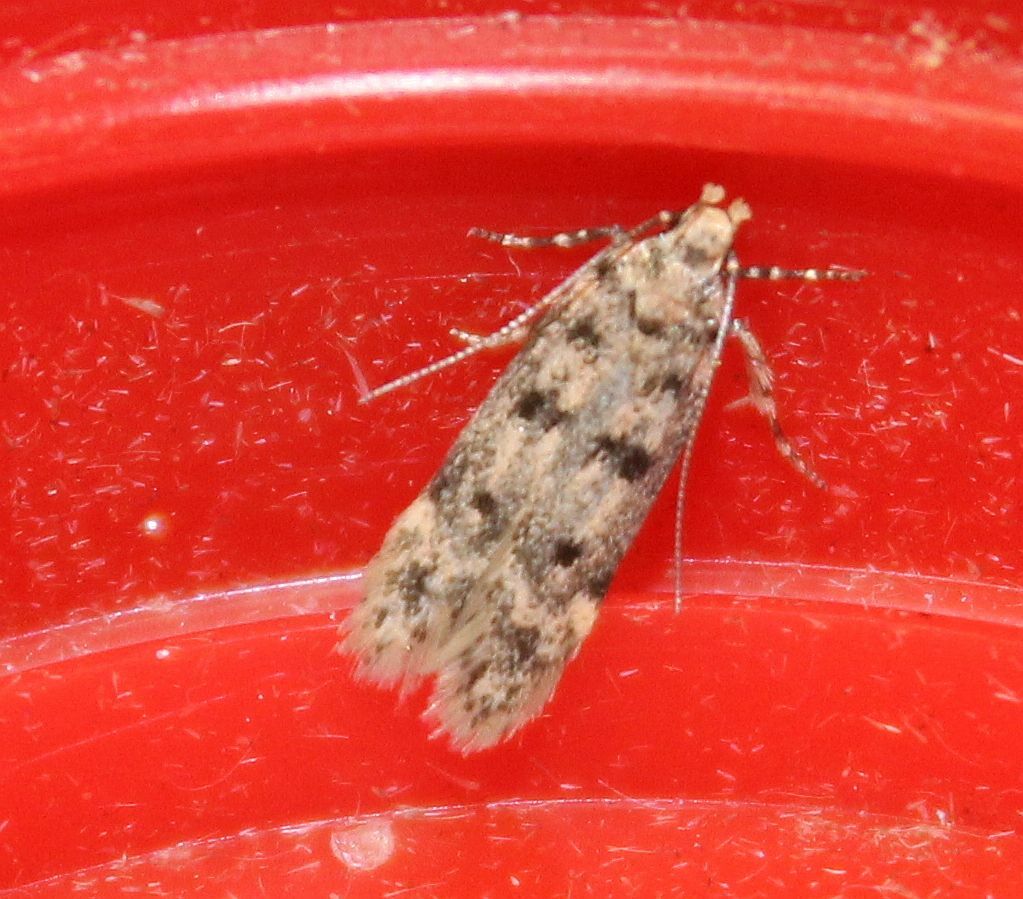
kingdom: Animalia
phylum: Arthropoda
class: Insecta
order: Lepidoptera
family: Gelechiidae
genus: Bryotropha
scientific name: Bryotropha domestica
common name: House groundling
